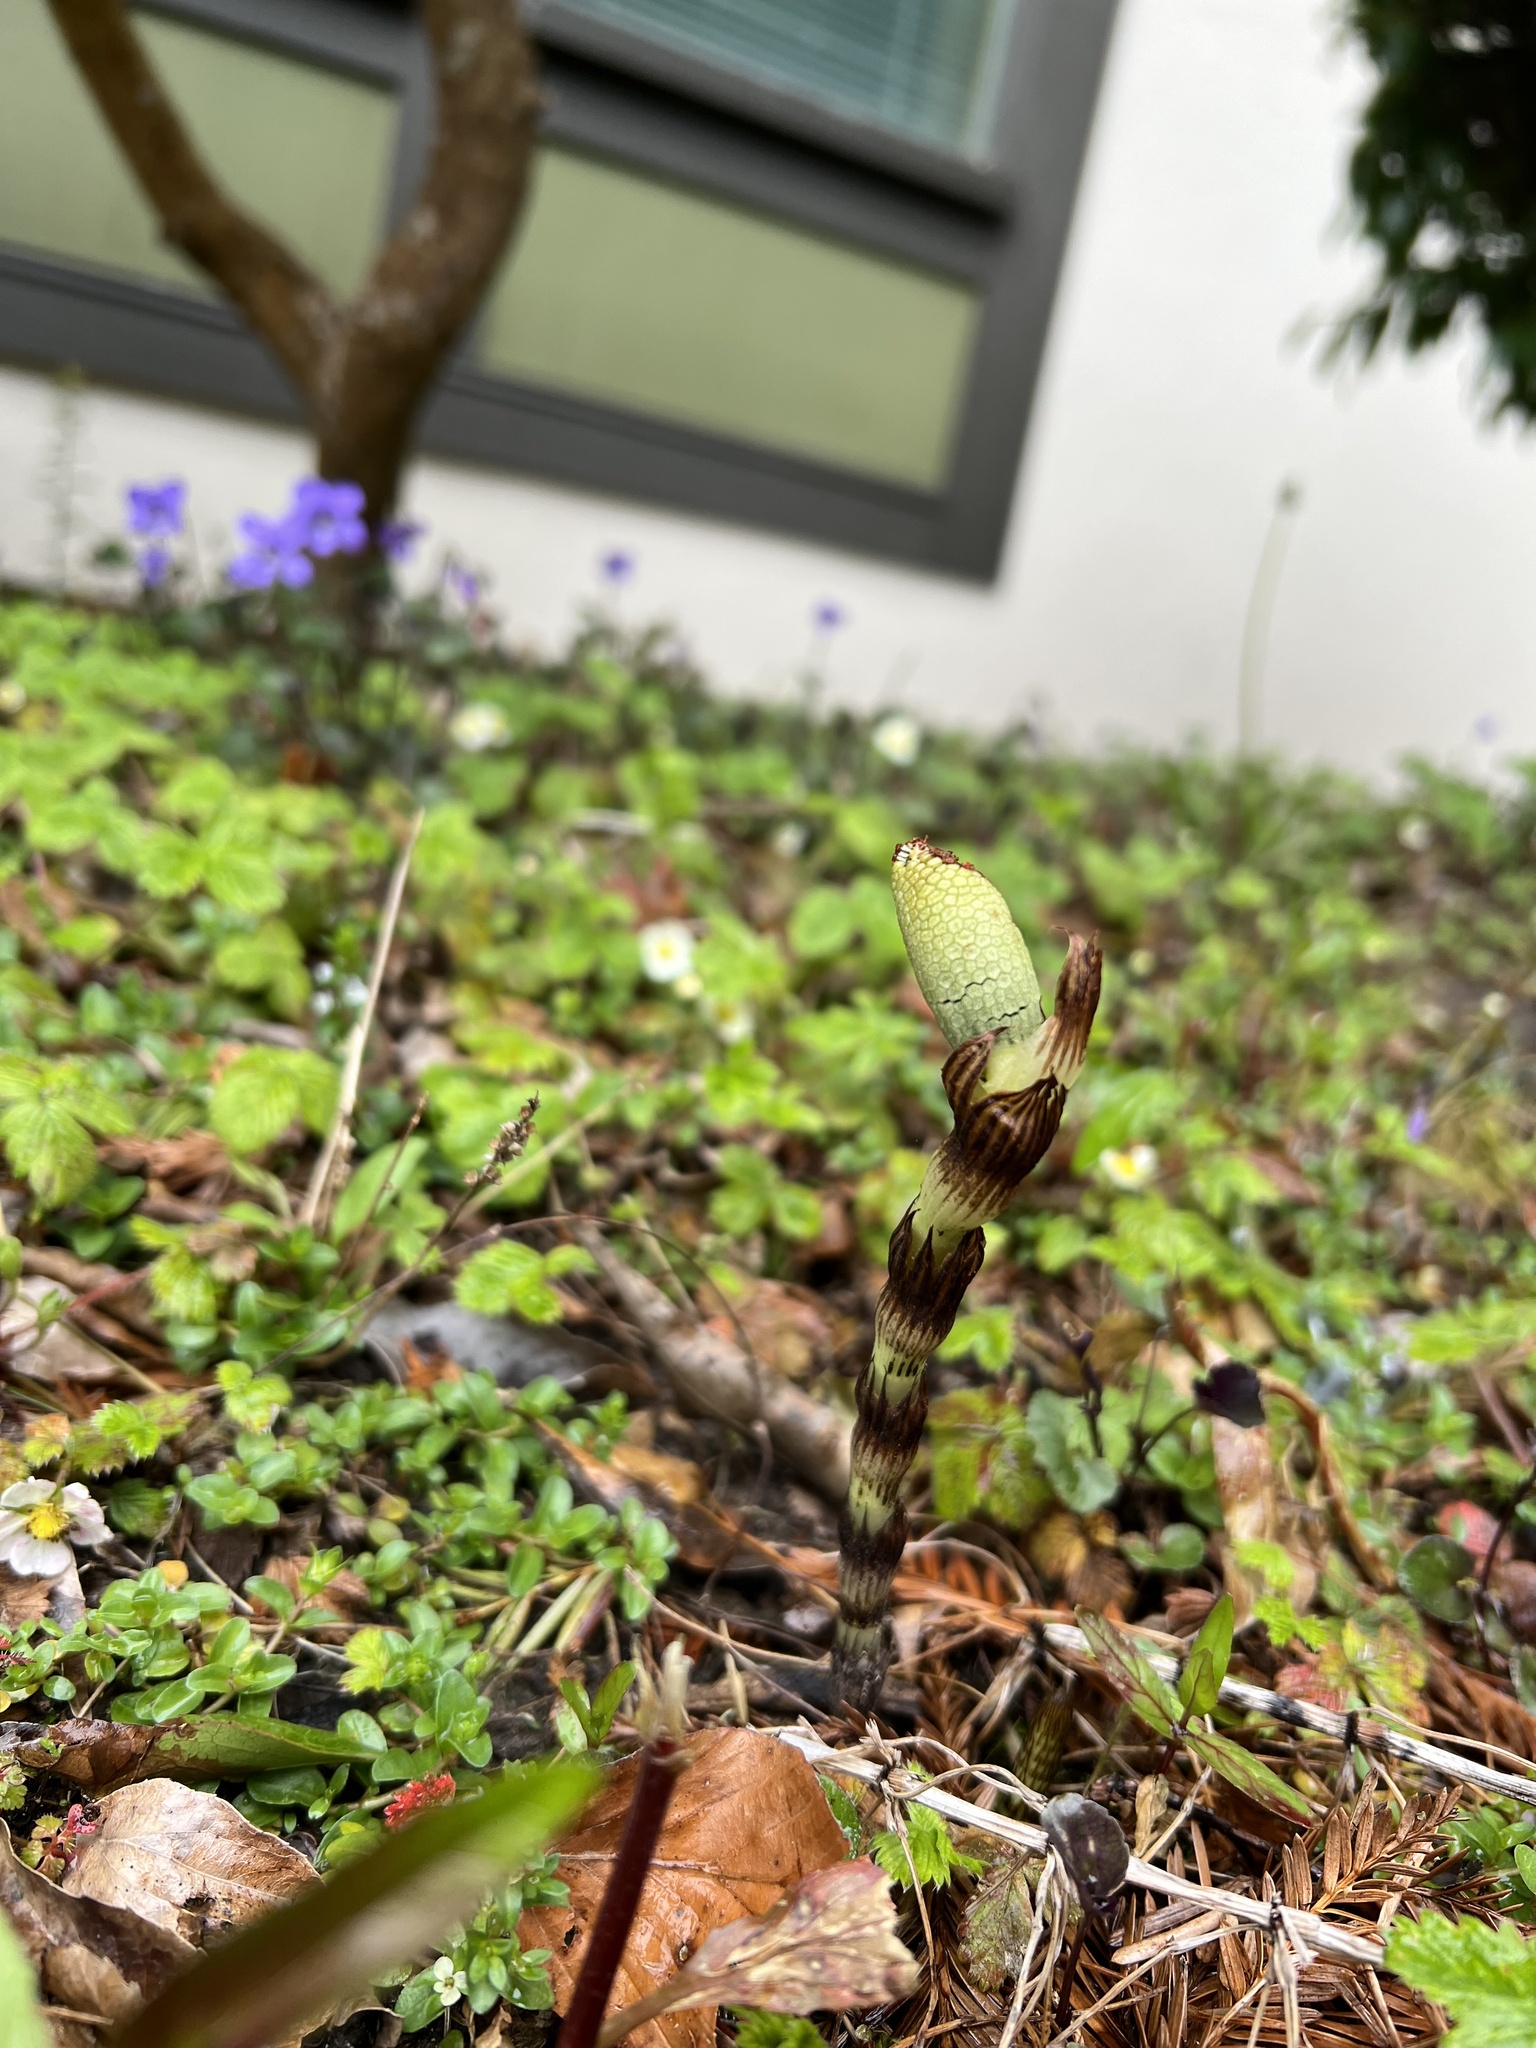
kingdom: Plantae
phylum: Tracheophyta
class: Polypodiopsida
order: Equisetales
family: Equisetaceae
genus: Equisetum
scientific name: Equisetum telmateia
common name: Great horsetail
